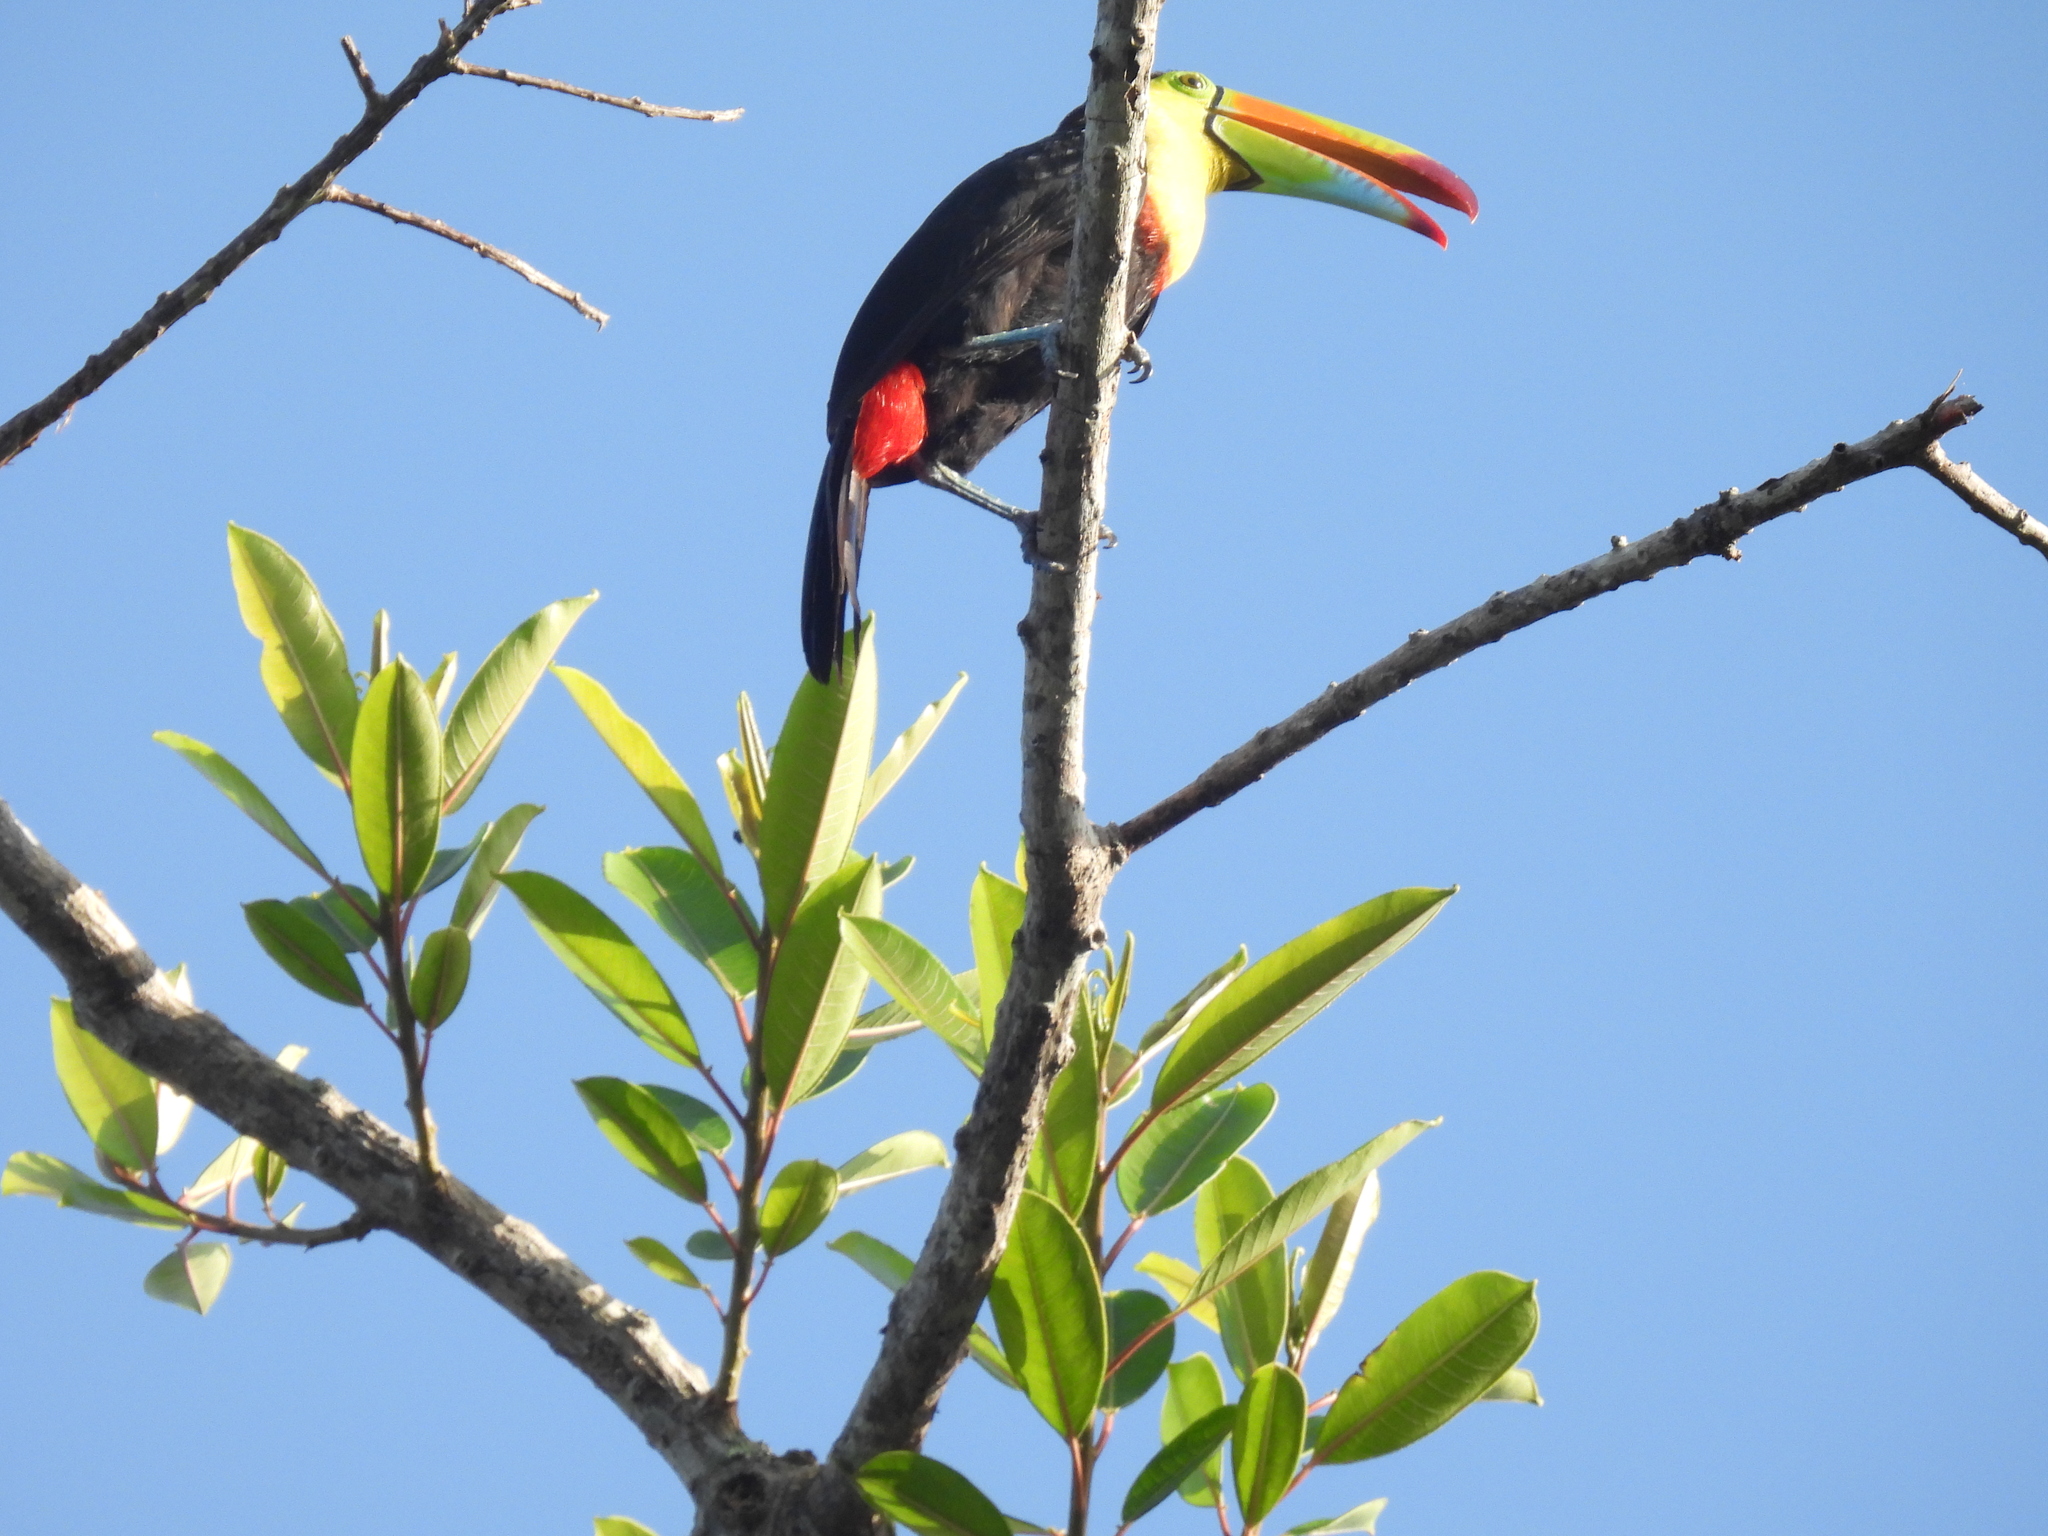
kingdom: Animalia
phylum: Chordata
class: Aves
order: Piciformes
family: Ramphastidae
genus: Ramphastos
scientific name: Ramphastos sulfuratus
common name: Keel-billed toucan
